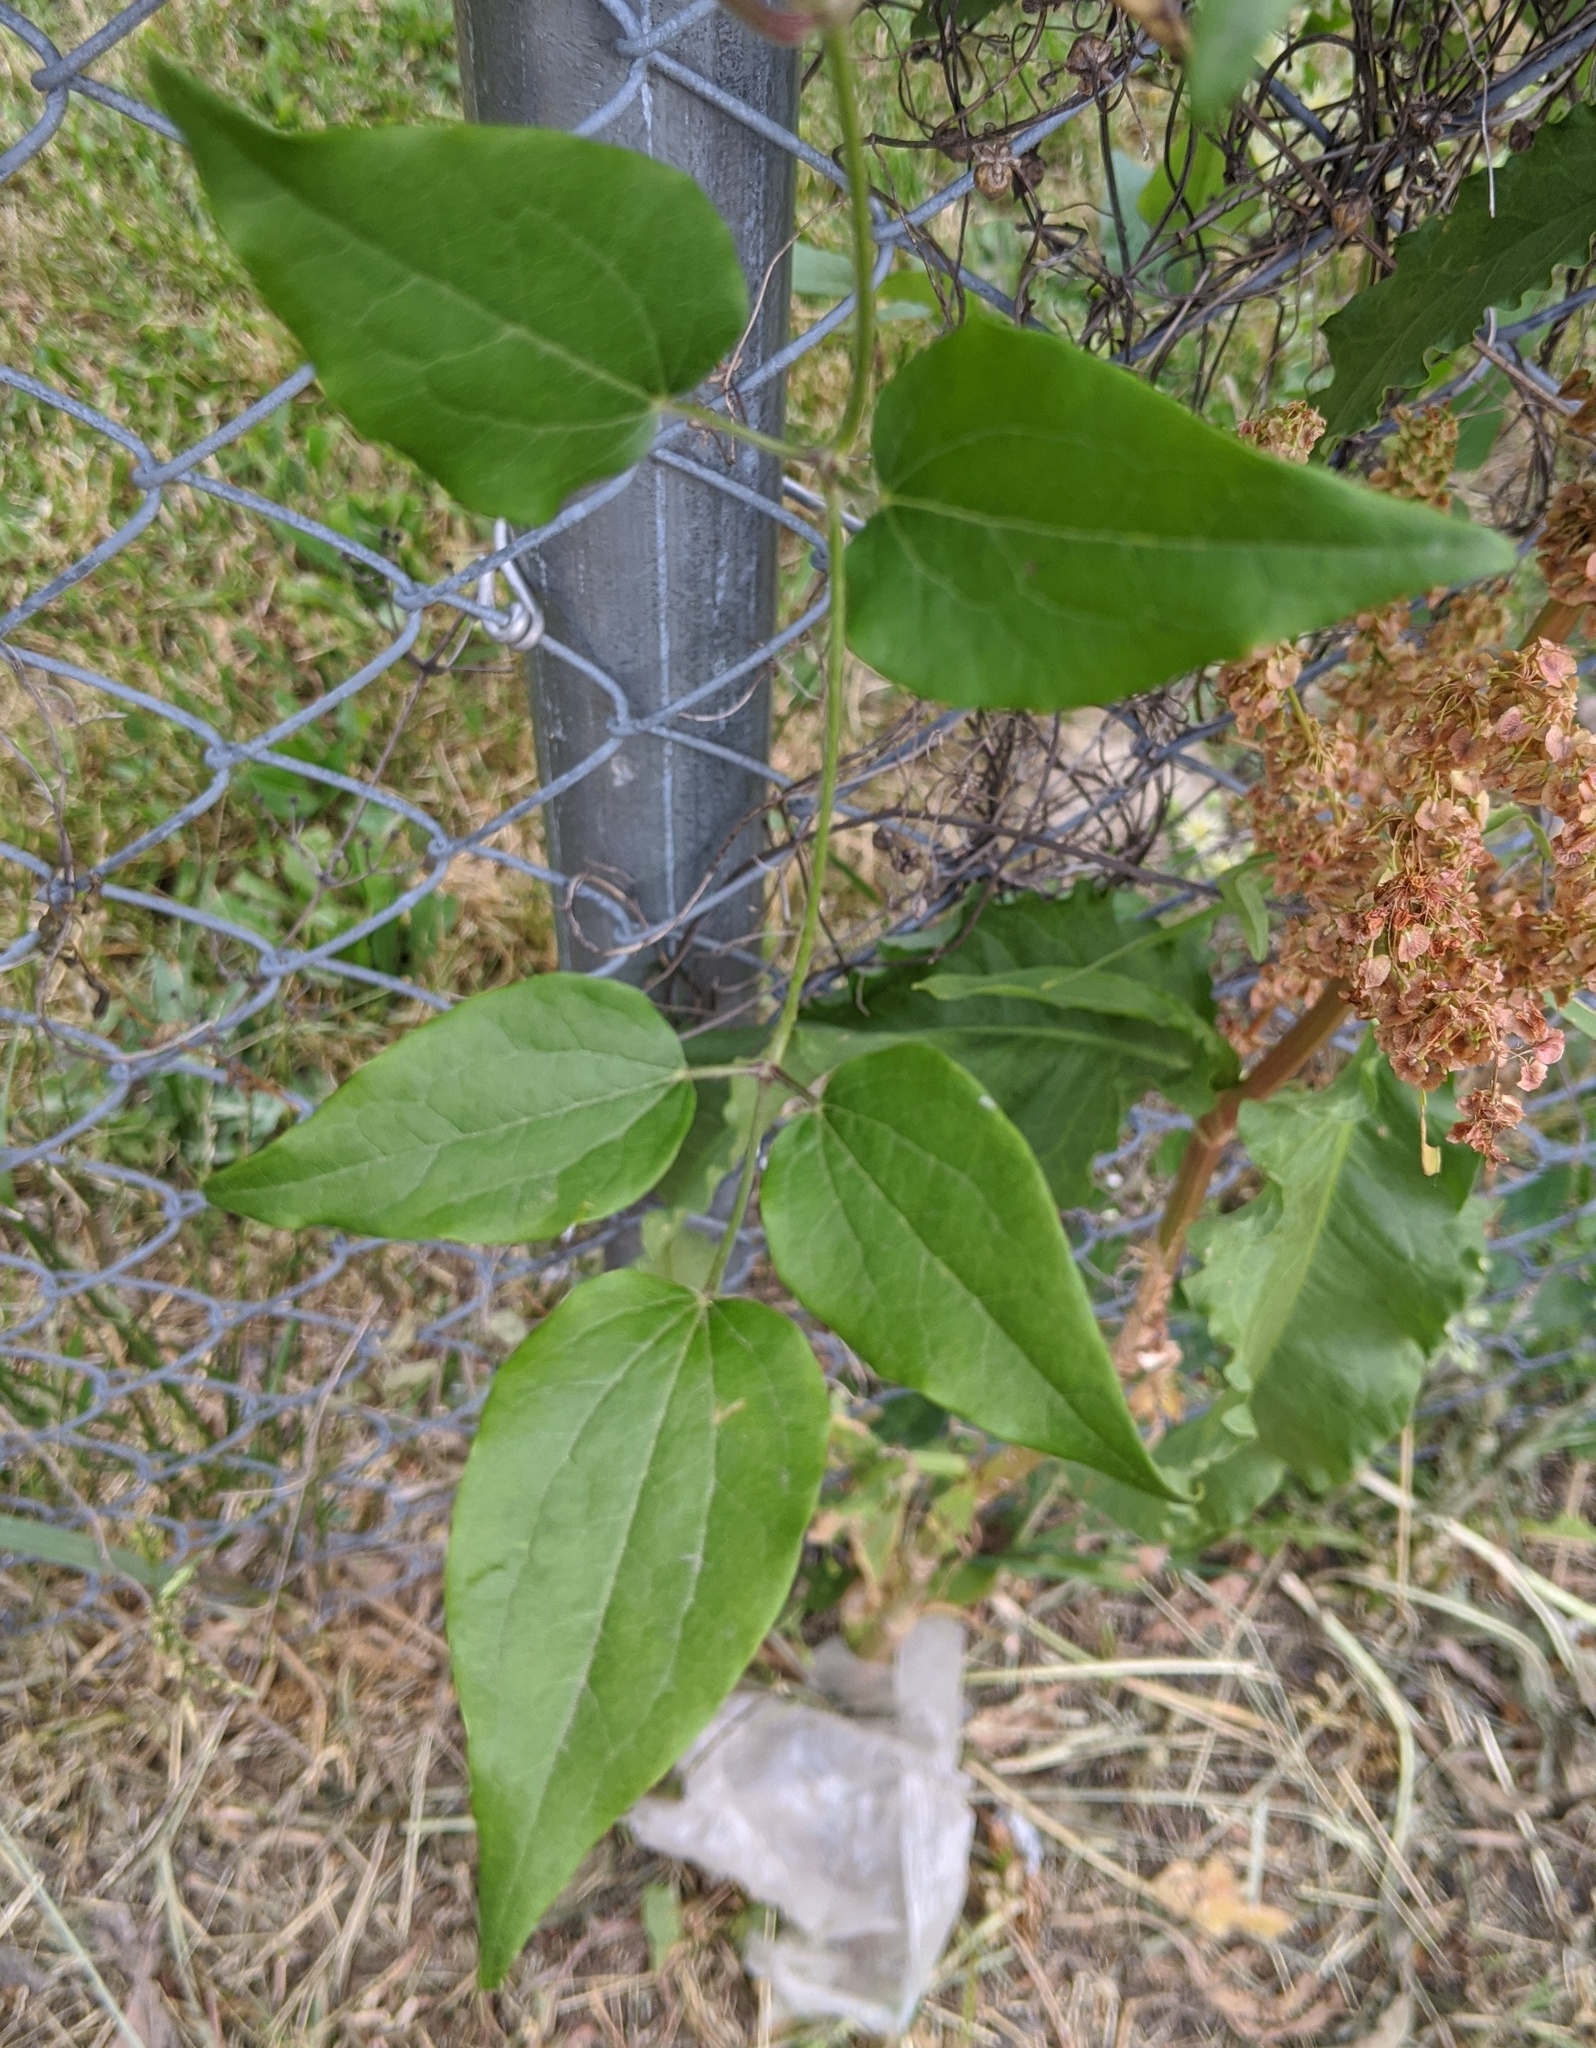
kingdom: Plantae
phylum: Tracheophyta
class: Magnoliopsida
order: Ranunculales
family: Ranunculaceae
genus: Clematis
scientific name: Clematis terniflora
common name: Sweet autumn clematis
